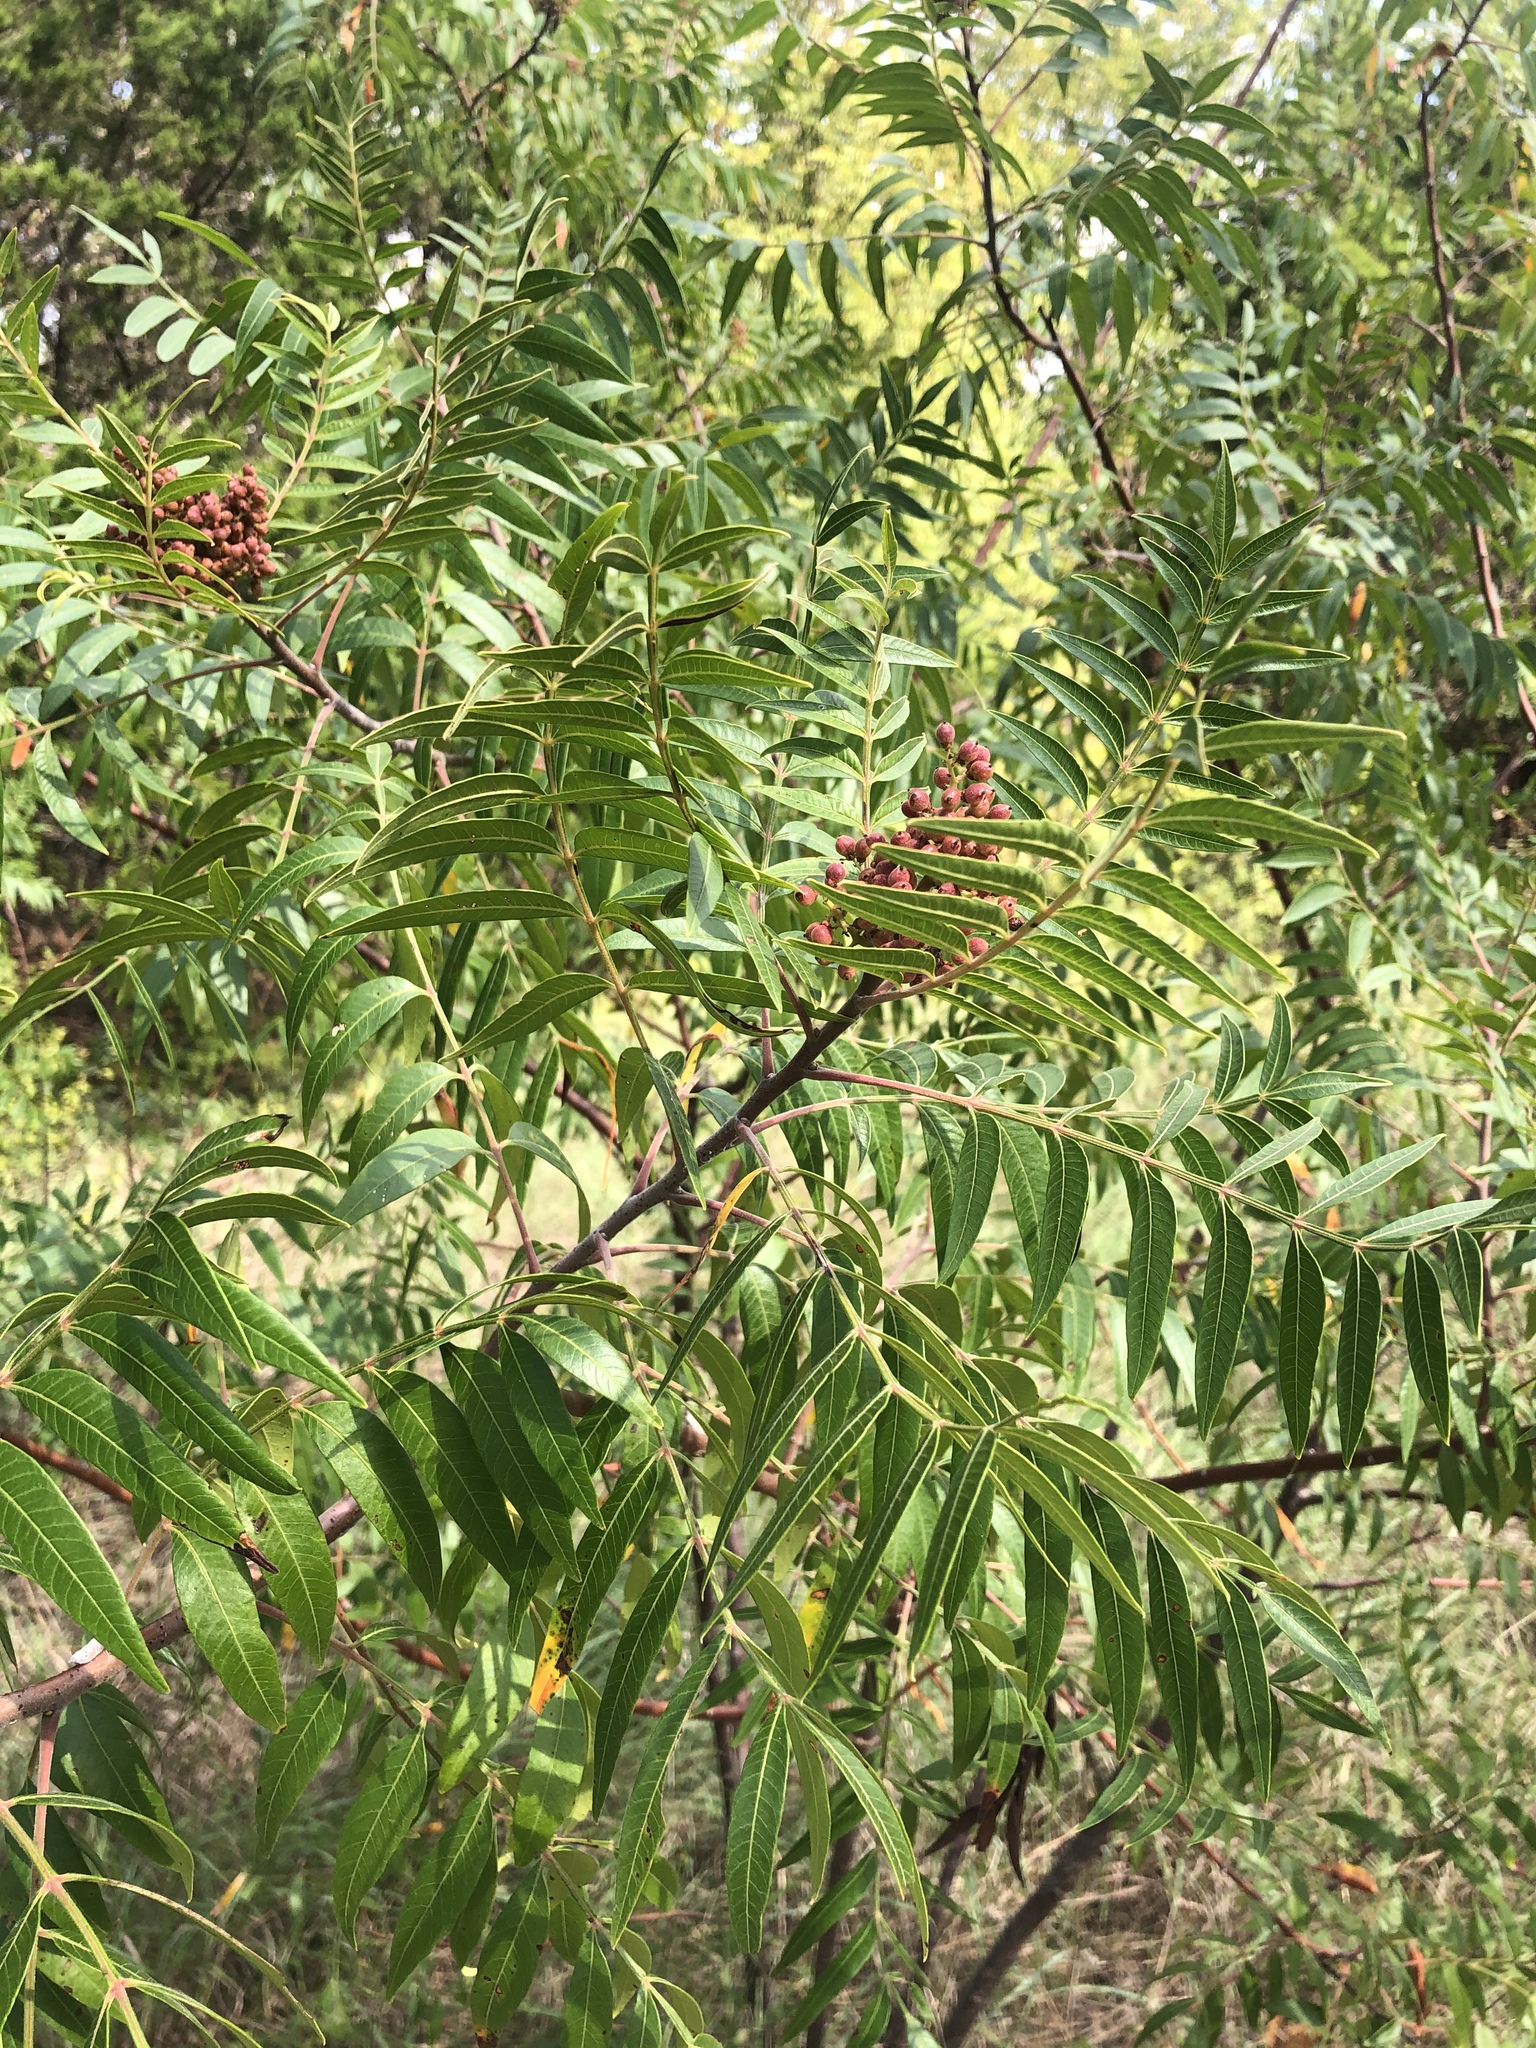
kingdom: Plantae
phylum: Tracheophyta
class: Magnoliopsida
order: Sapindales
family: Anacardiaceae
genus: Rhus
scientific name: Rhus lanceolata
